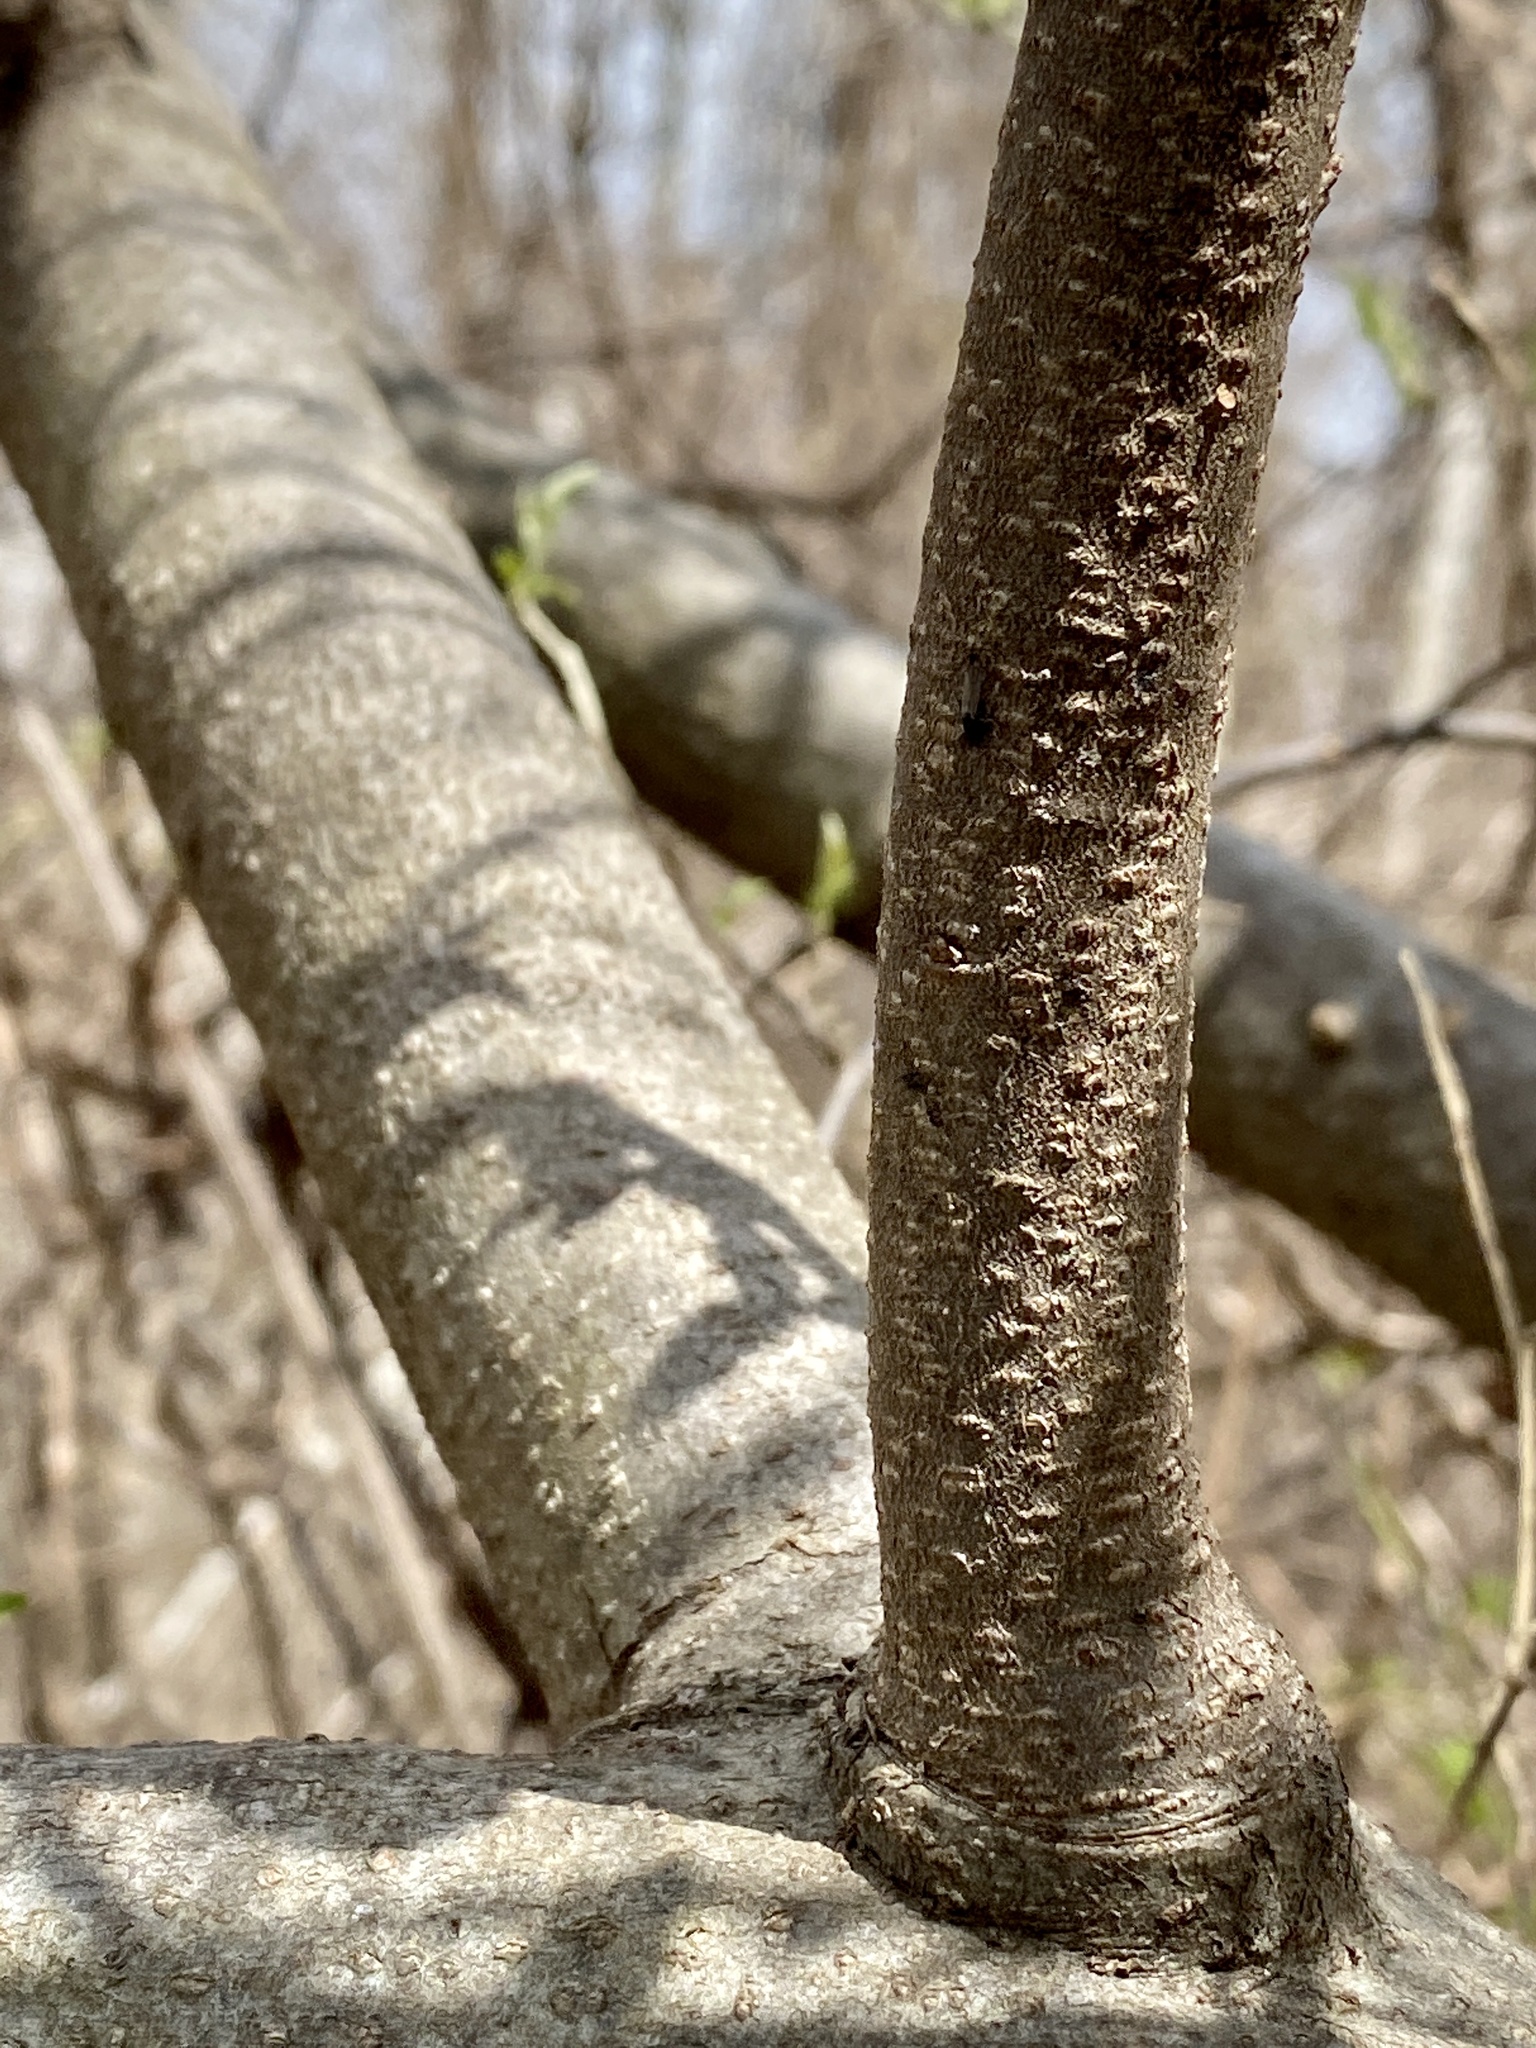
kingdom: Plantae
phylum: Tracheophyta
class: Magnoliopsida
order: Rosales
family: Elaeagnaceae
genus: Elaeagnus
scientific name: Elaeagnus umbellata
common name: Autumn olive
